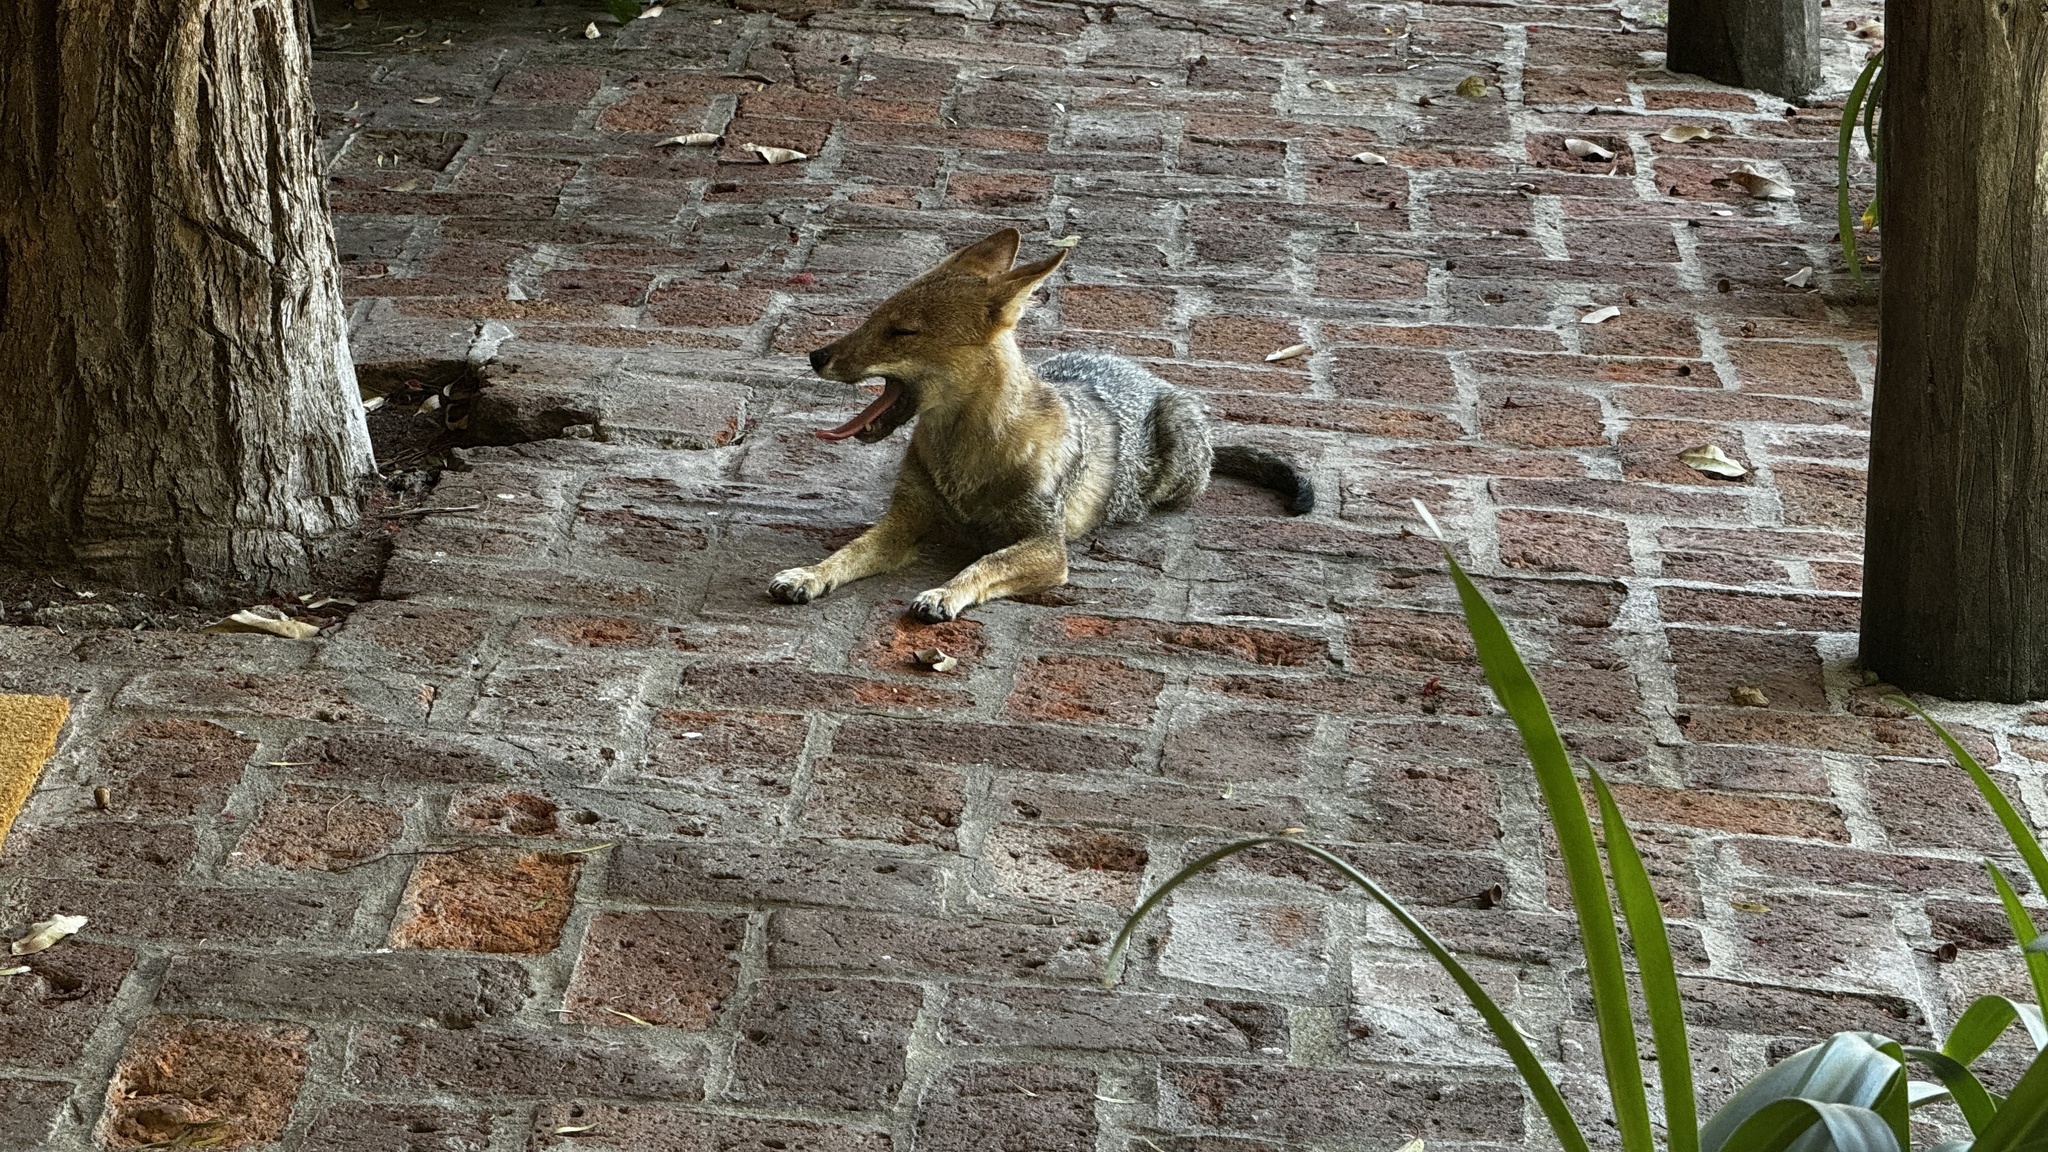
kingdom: Animalia
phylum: Chordata
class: Mammalia
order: Carnivora
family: Canidae
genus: Lycalopex
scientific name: Lycalopex gymnocercus
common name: Pampas fox
